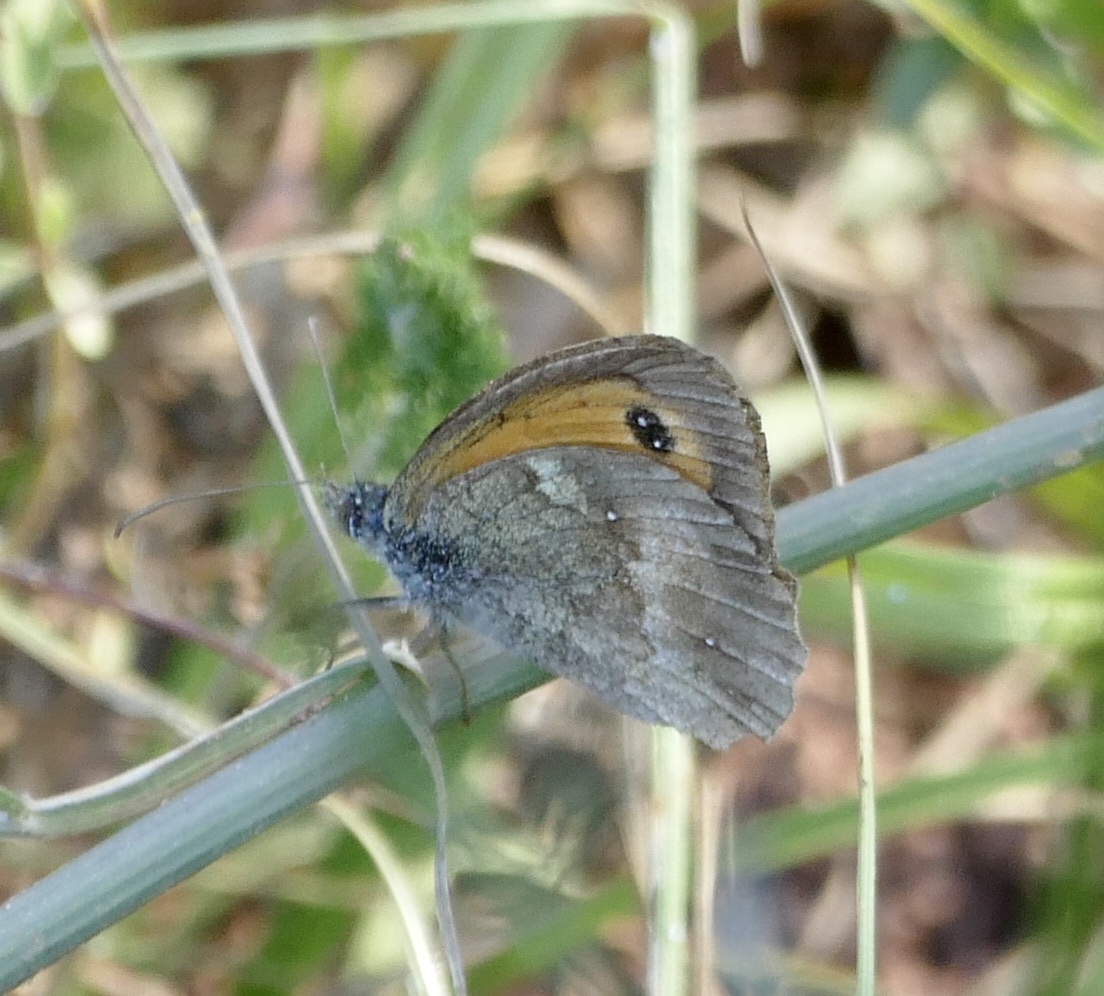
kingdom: Animalia
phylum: Arthropoda
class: Insecta
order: Lepidoptera
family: Nymphalidae
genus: Pyronia
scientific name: Pyronia tithonus
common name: Gatekeeper
